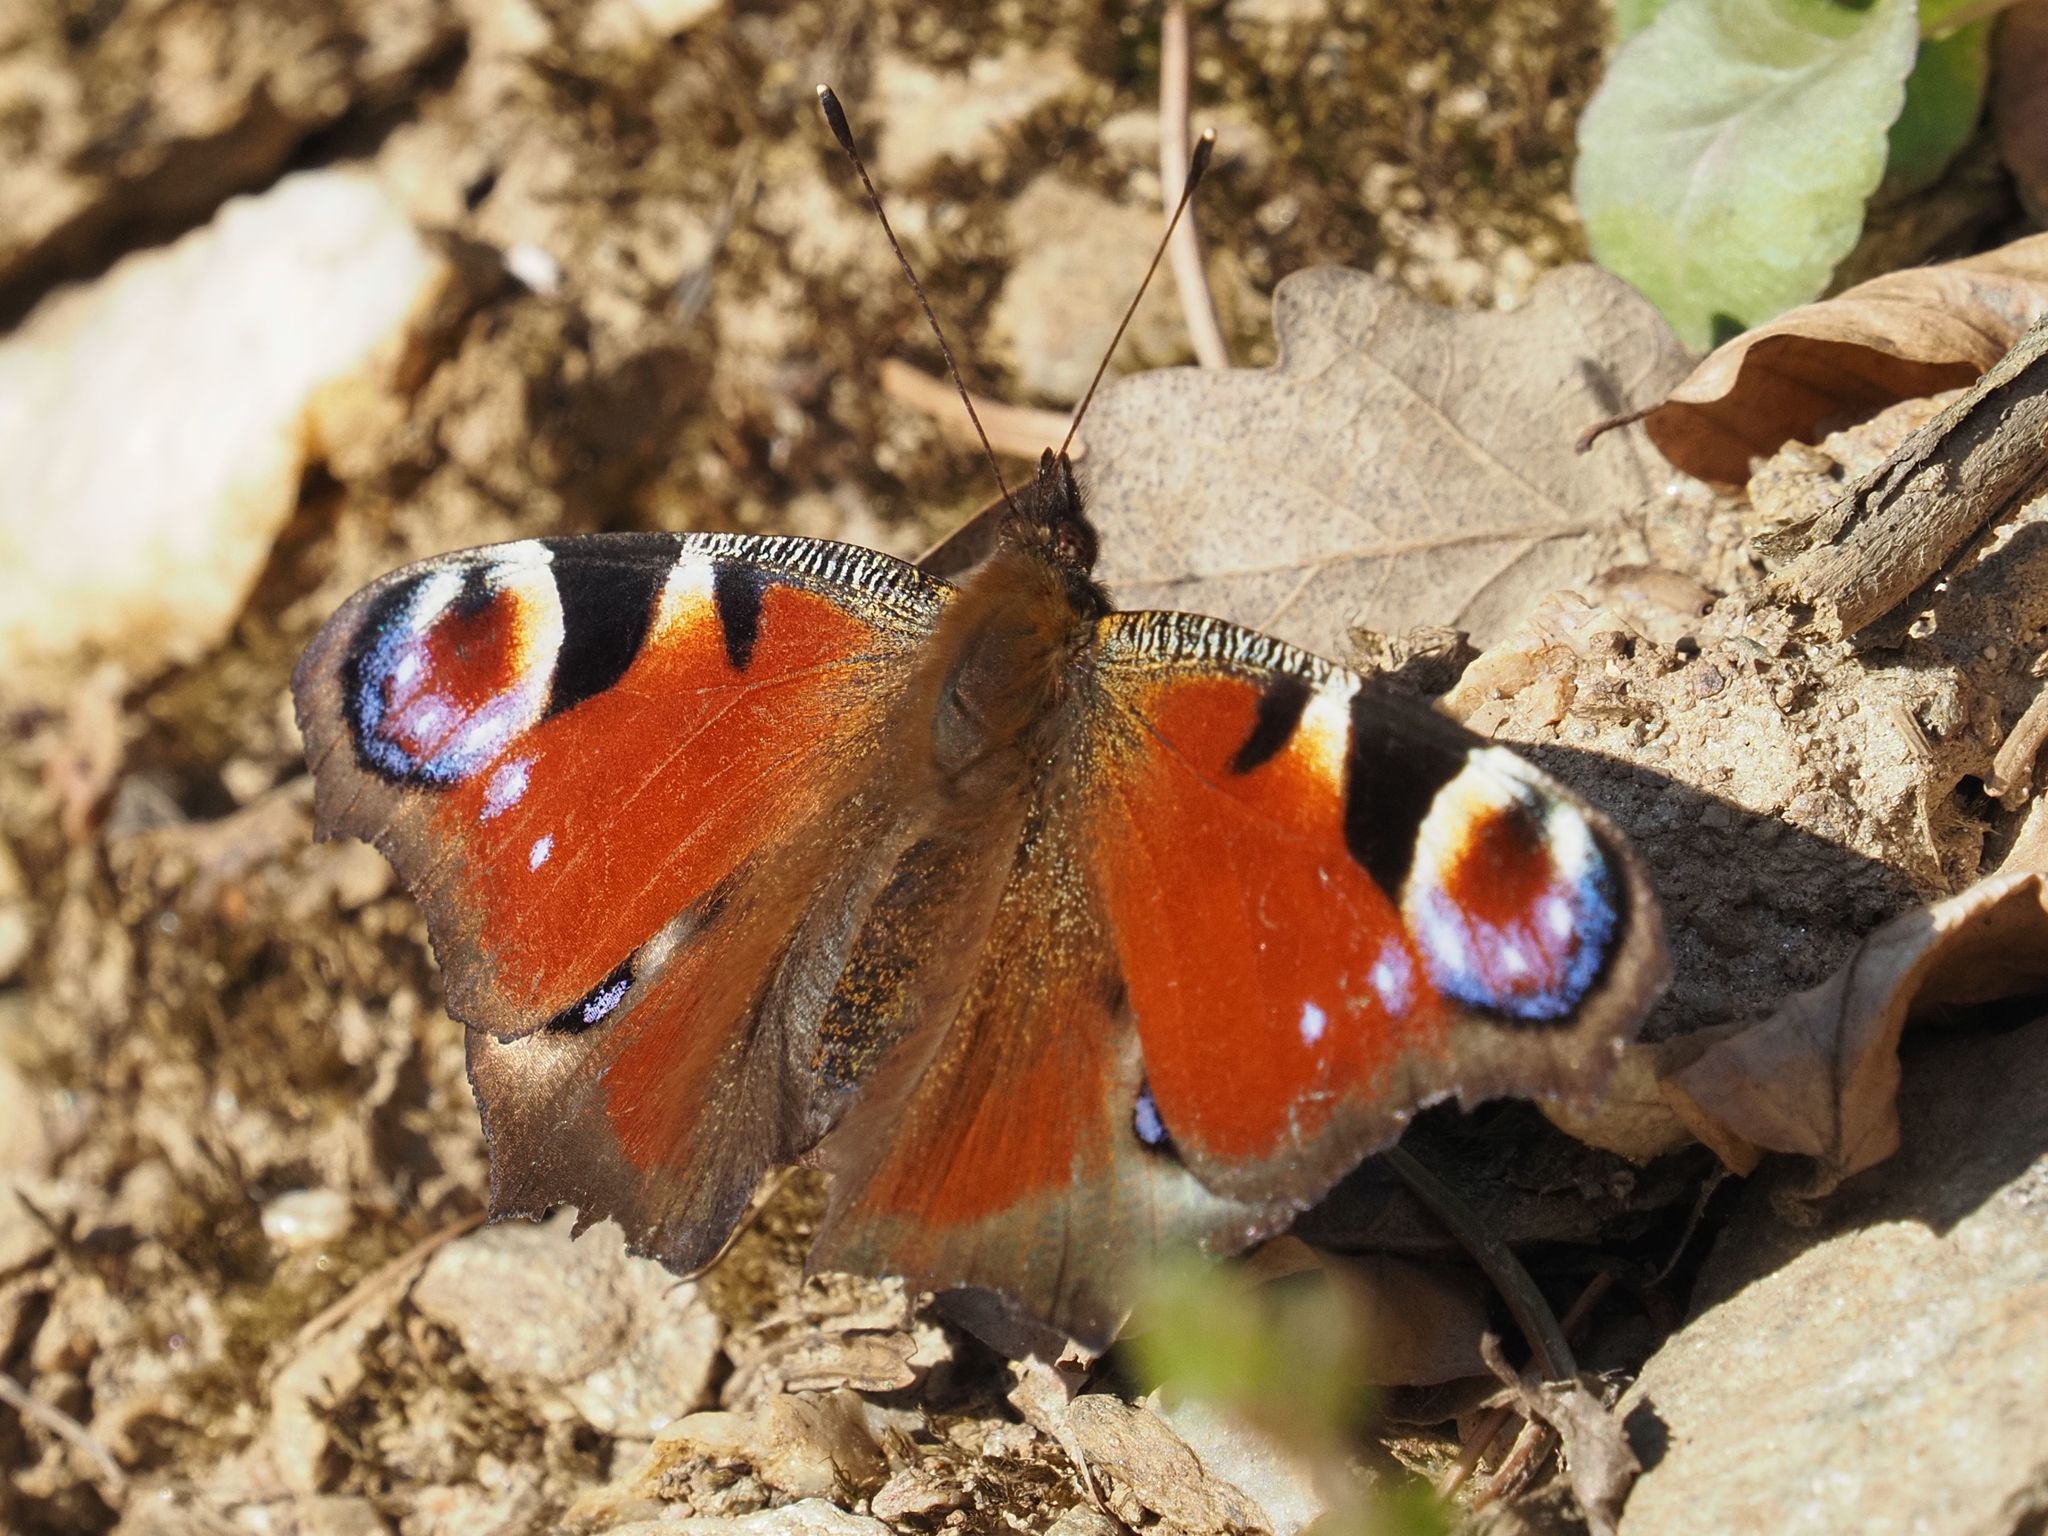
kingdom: Animalia
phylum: Arthropoda
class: Insecta
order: Lepidoptera
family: Nymphalidae
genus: Aglais
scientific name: Aglais io
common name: Peacock
